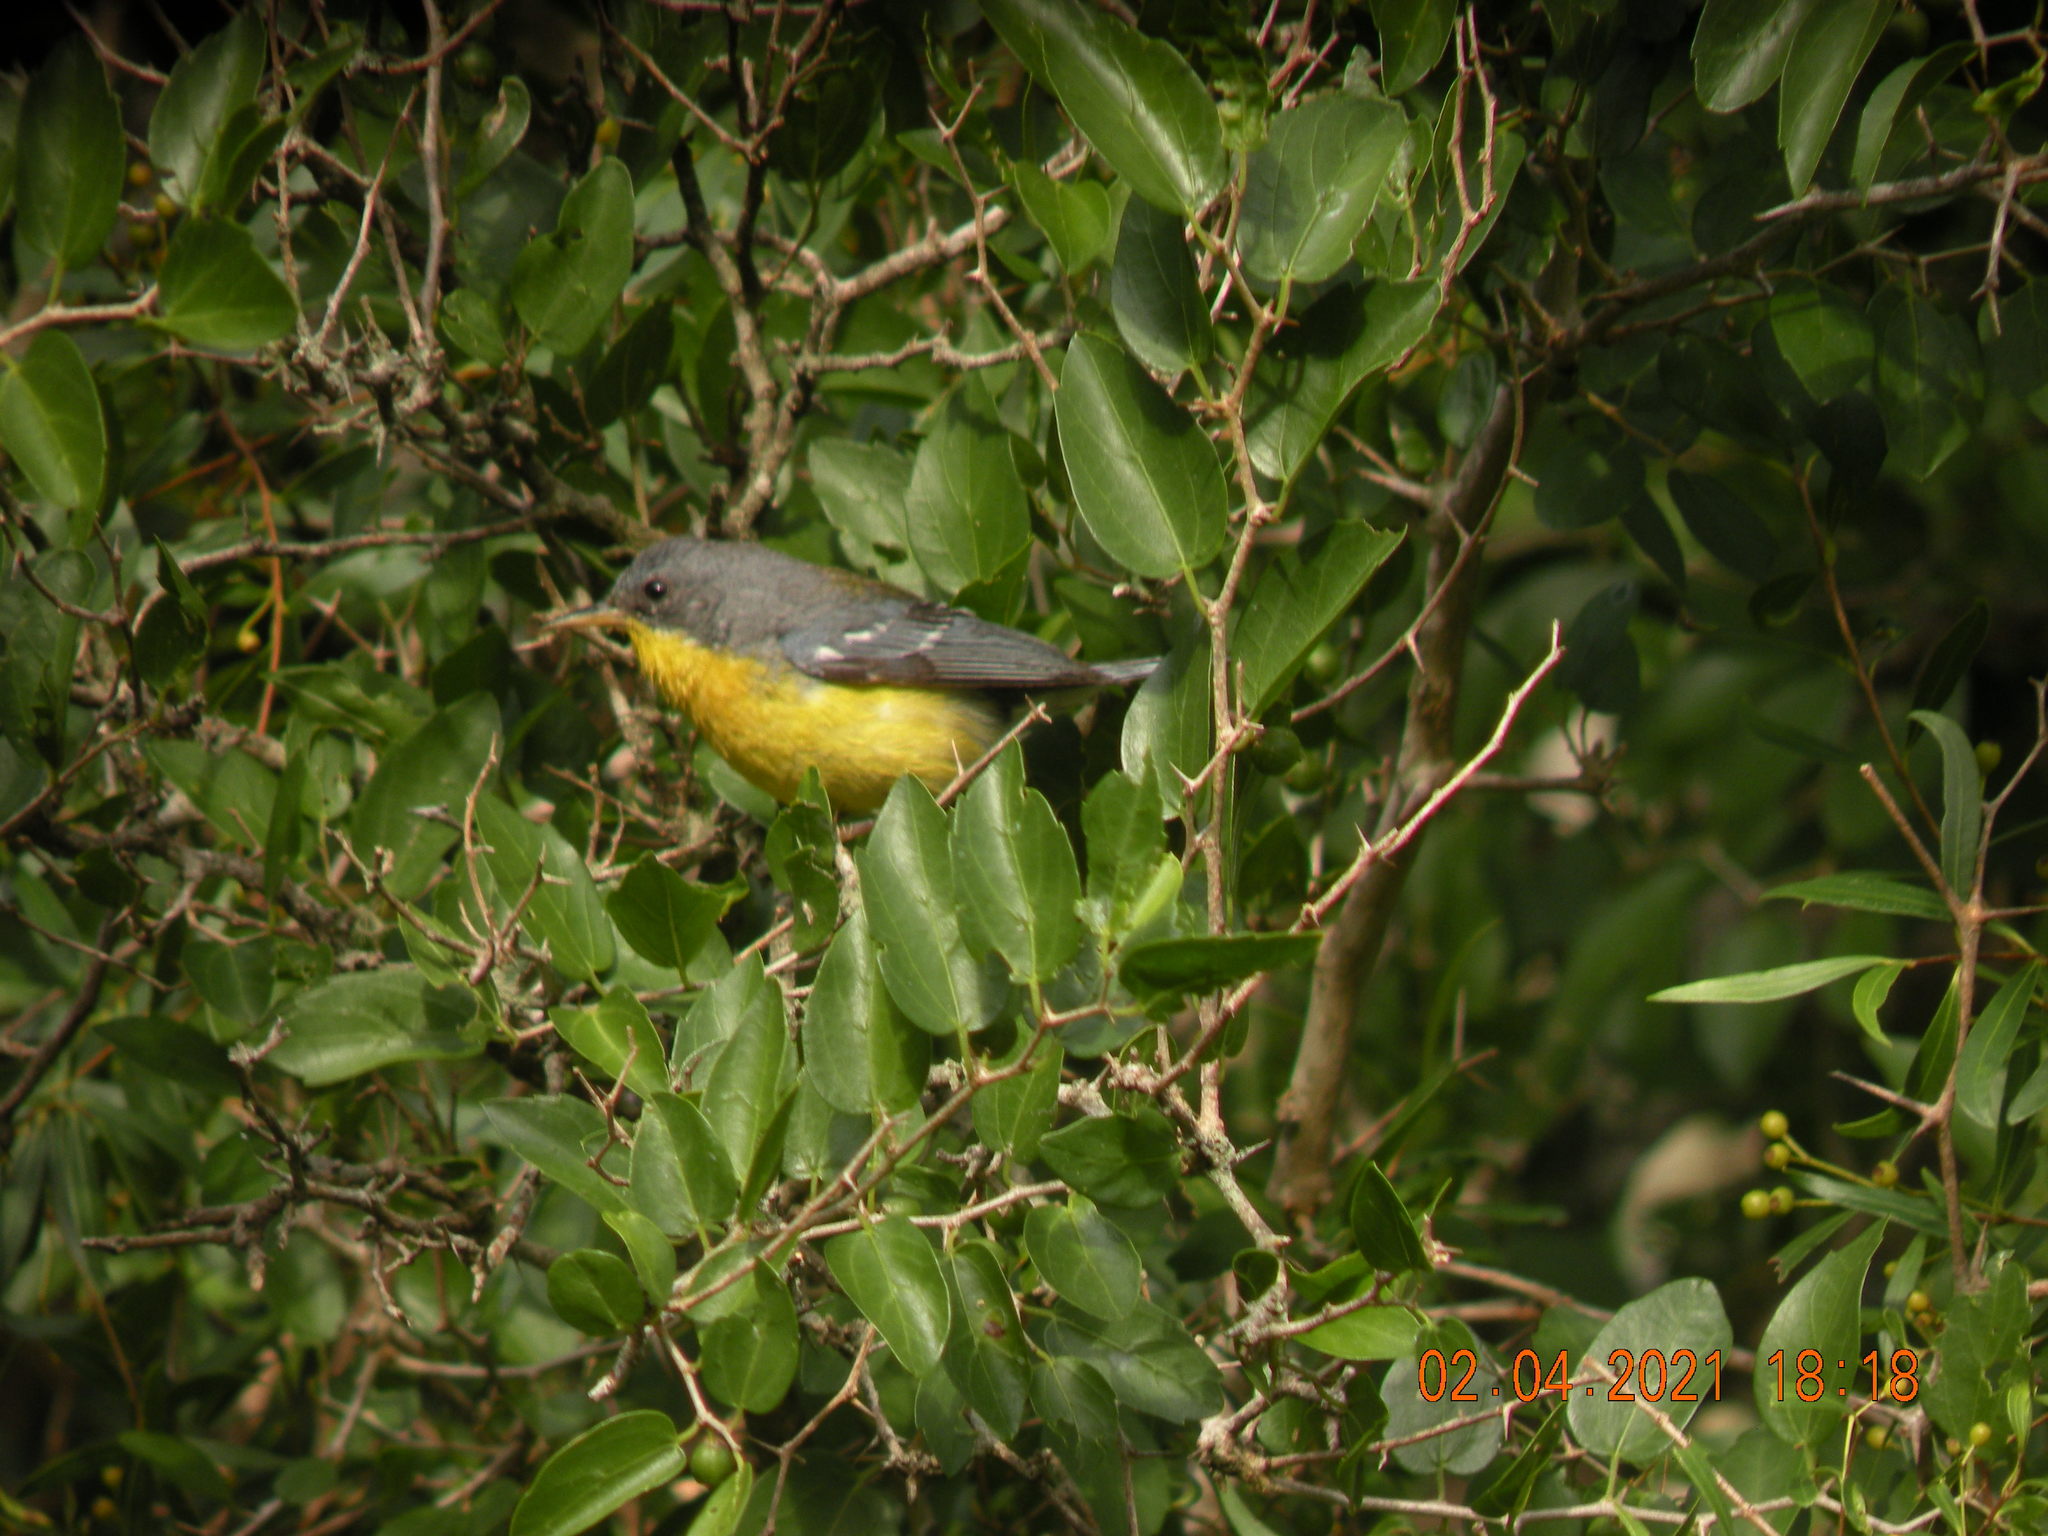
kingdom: Animalia
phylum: Chordata
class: Aves
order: Passeriformes
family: Parulidae
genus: Setophaga
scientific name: Setophaga pitiayumi
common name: Tropical parula
